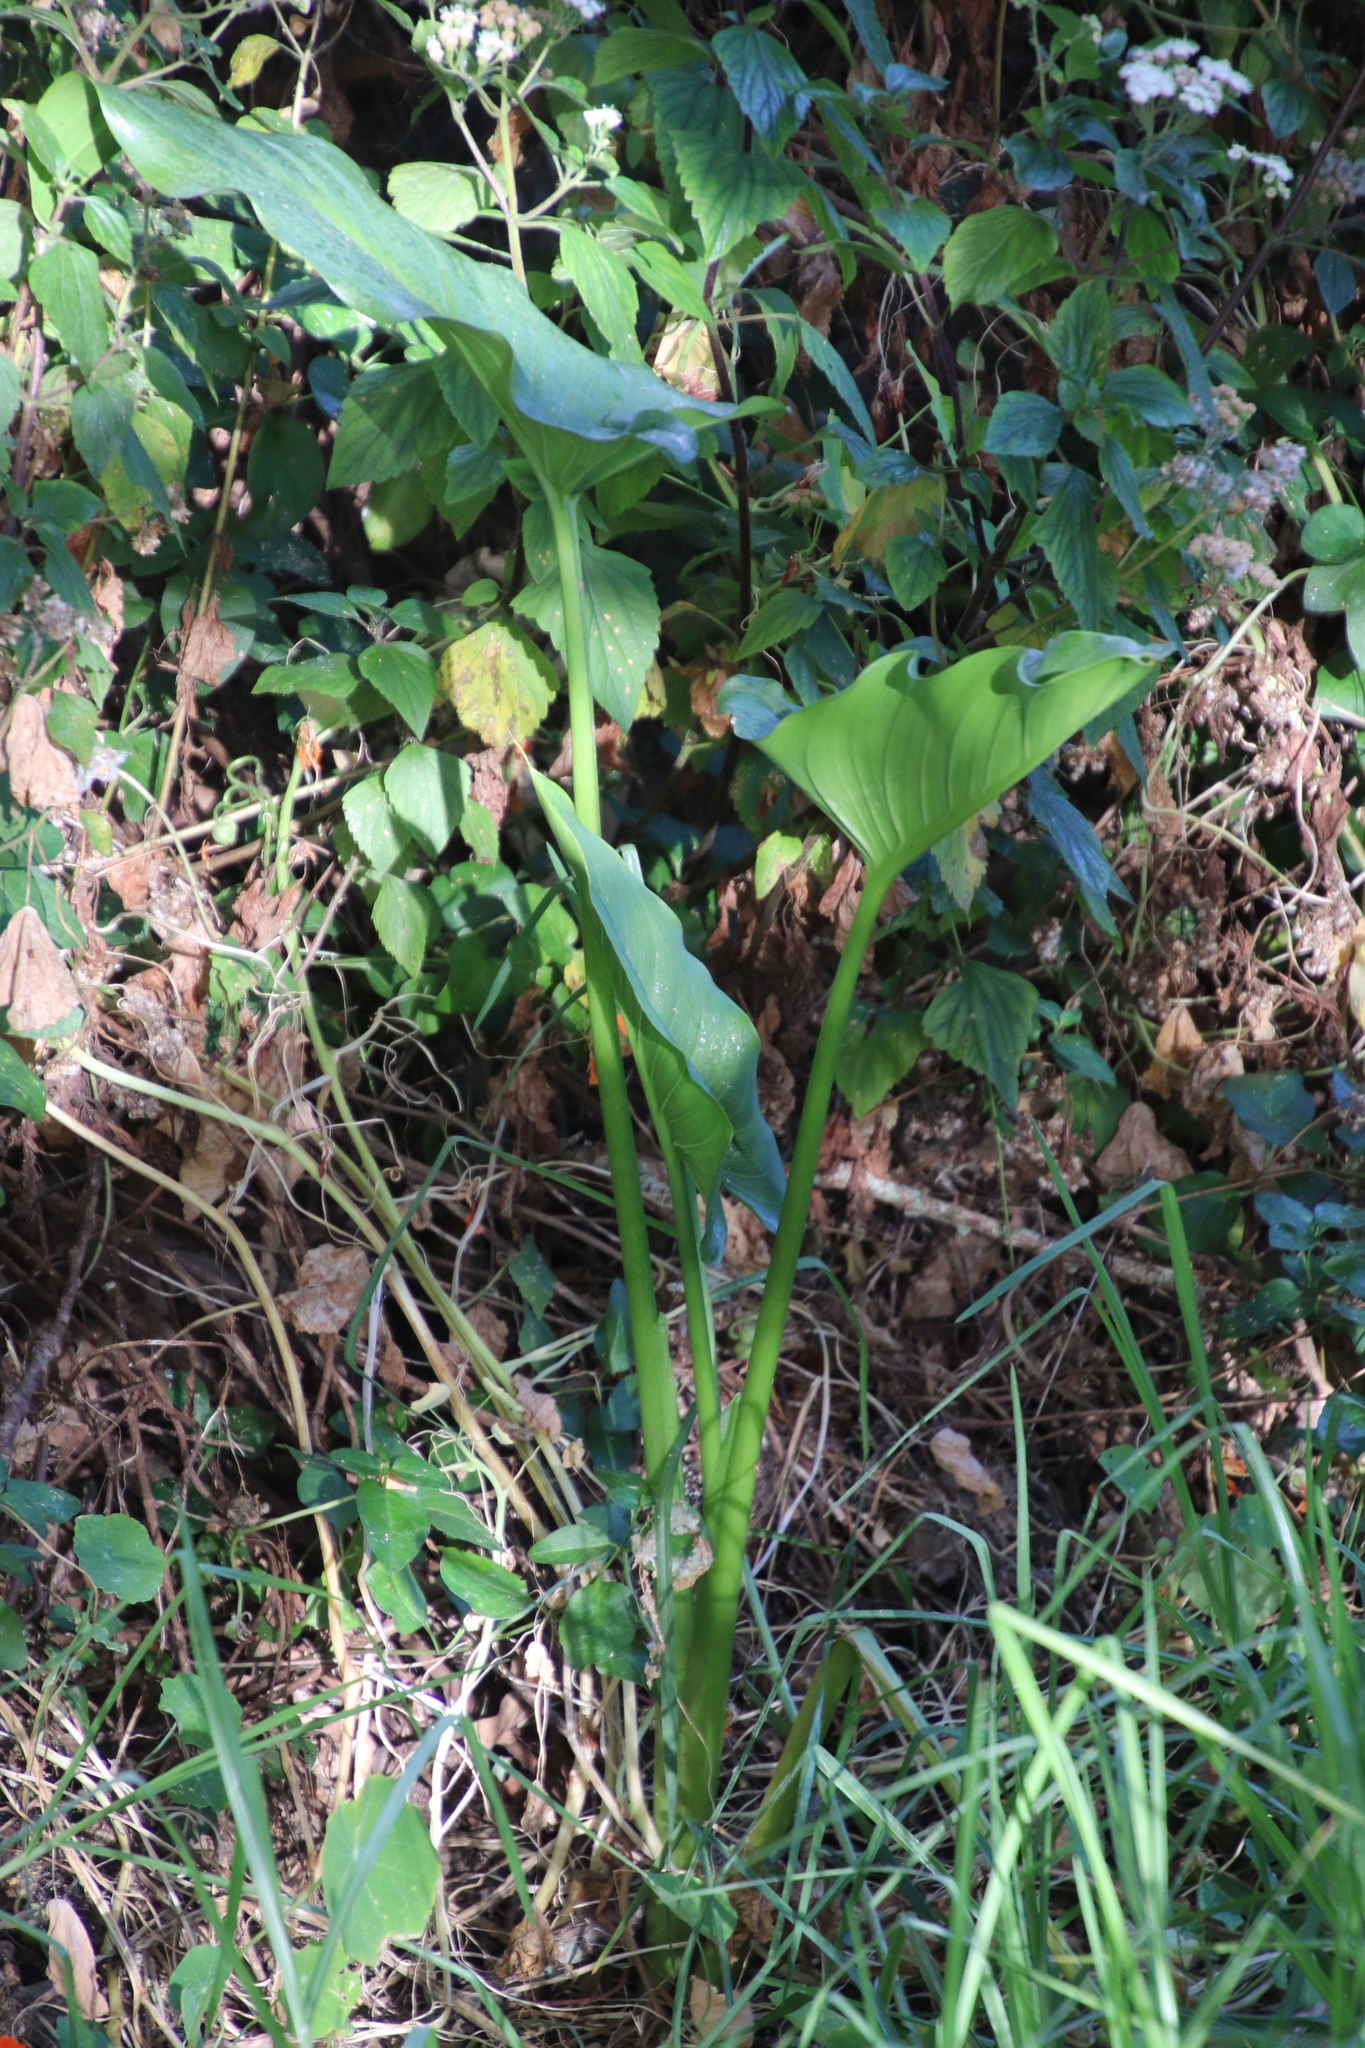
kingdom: Plantae
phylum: Tracheophyta
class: Liliopsida
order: Alismatales
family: Araceae
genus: Zantedeschia
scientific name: Zantedeschia aethiopica
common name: Altar-lily
